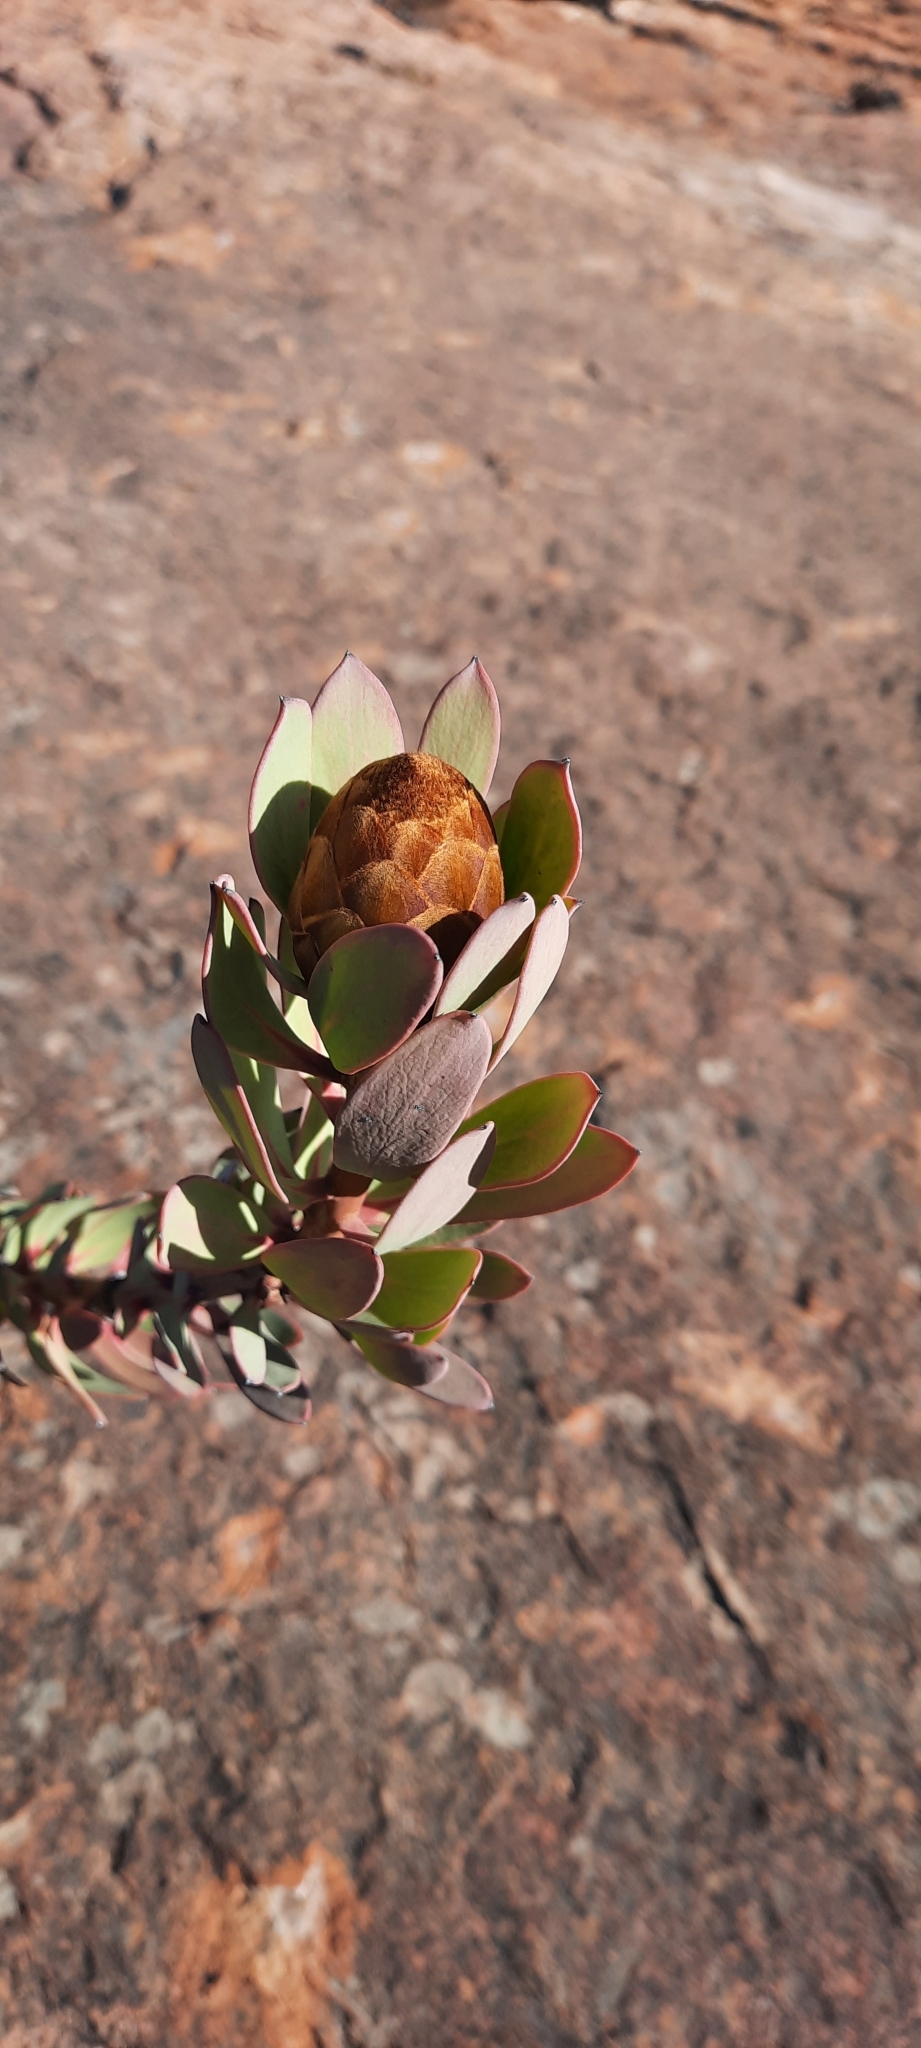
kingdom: Plantae
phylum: Tracheophyta
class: Magnoliopsida
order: Proteales
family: Proteaceae
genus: Protea
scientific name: Protea glabra
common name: Chestnut sugarbush
